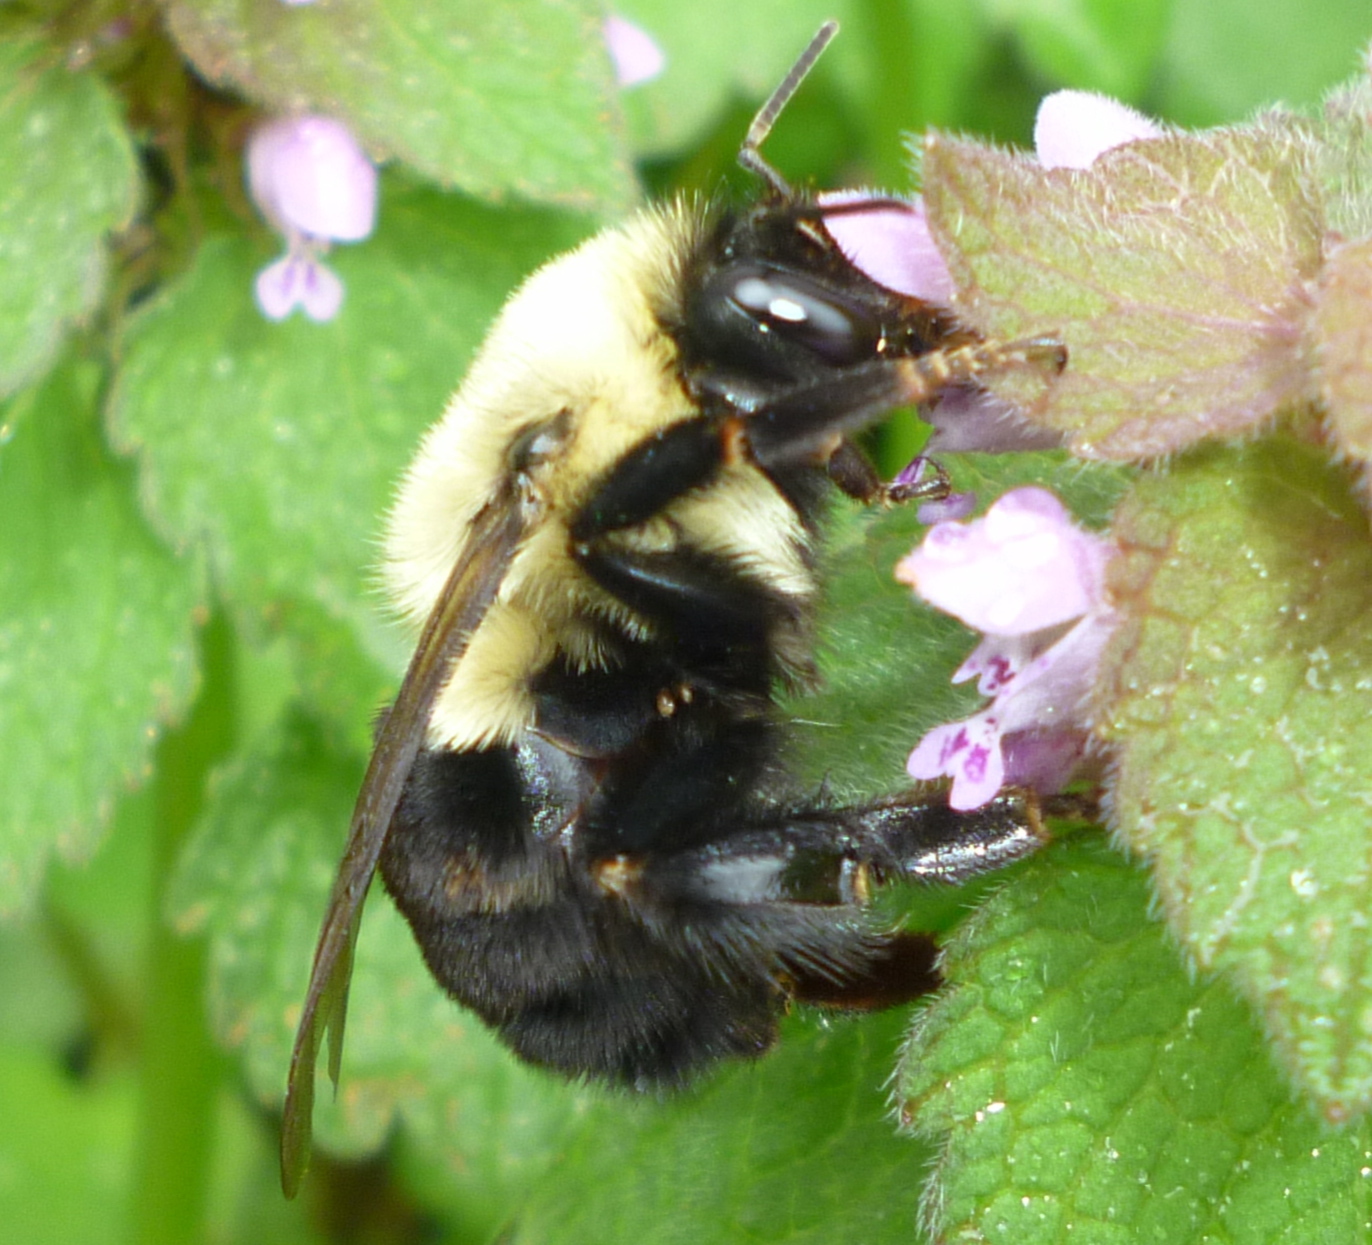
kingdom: Animalia
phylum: Arthropoda
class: Insecta
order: Hymenoptera
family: Apidae
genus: Bombus
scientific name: Bombus impatiens
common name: Common eastern bumble bee
